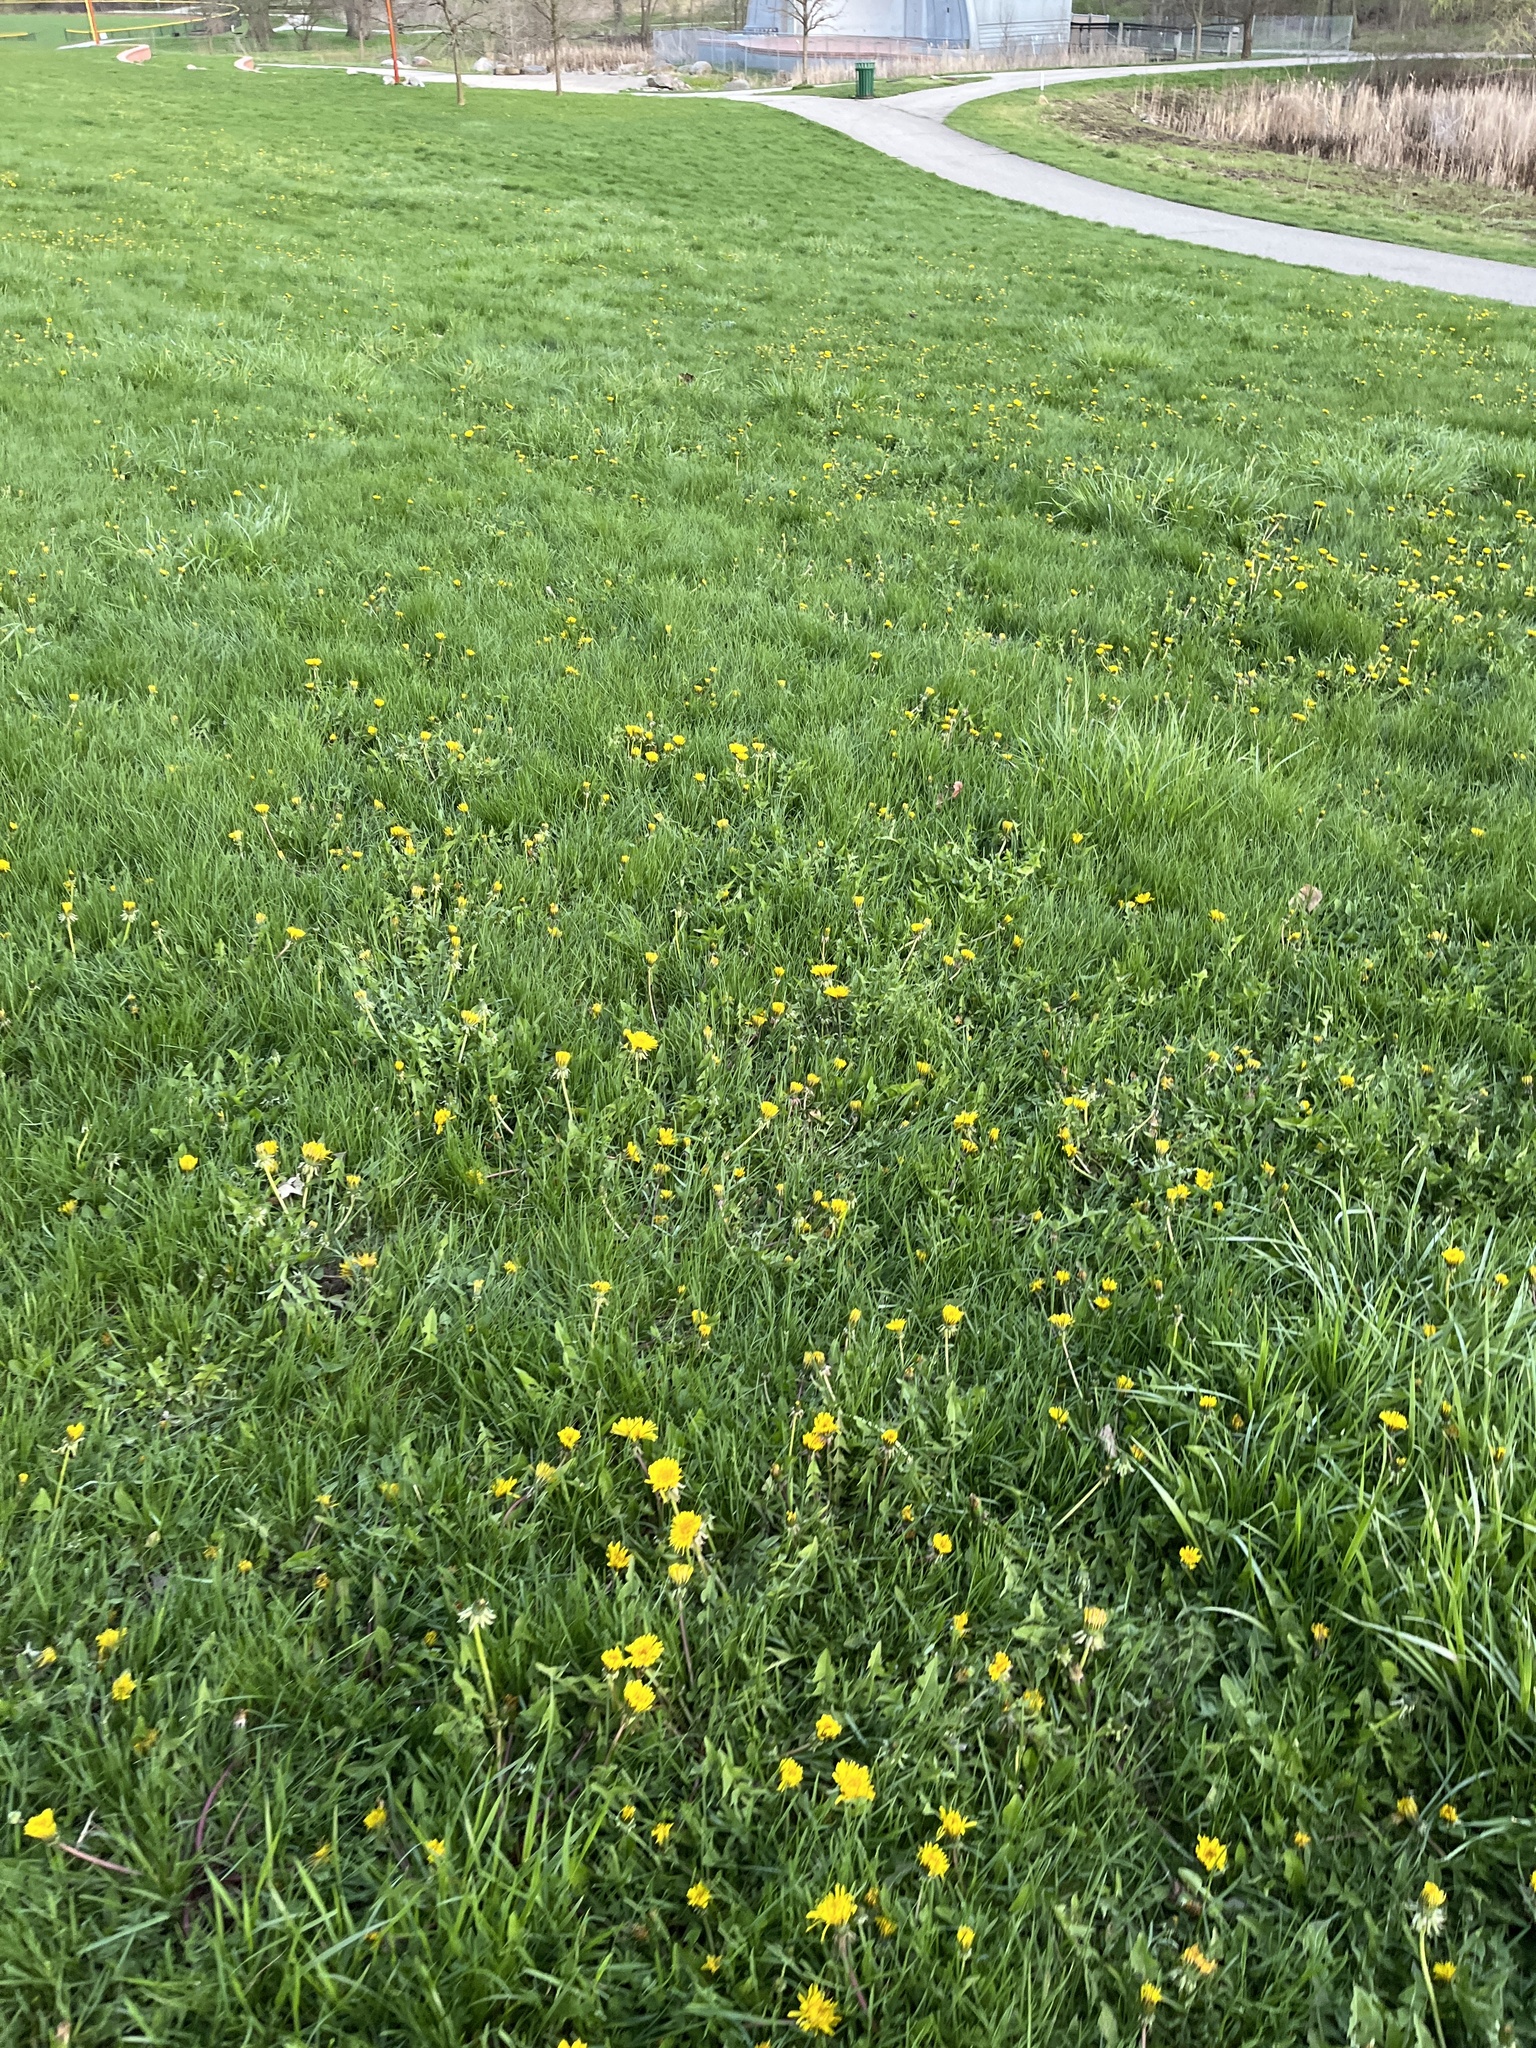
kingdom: Plantae
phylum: Tracheophyta
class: Magnoliopsida
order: Asterales
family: Asteraceae
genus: Taraxacum
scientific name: Taraxacum officinale
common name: Common dandelion
